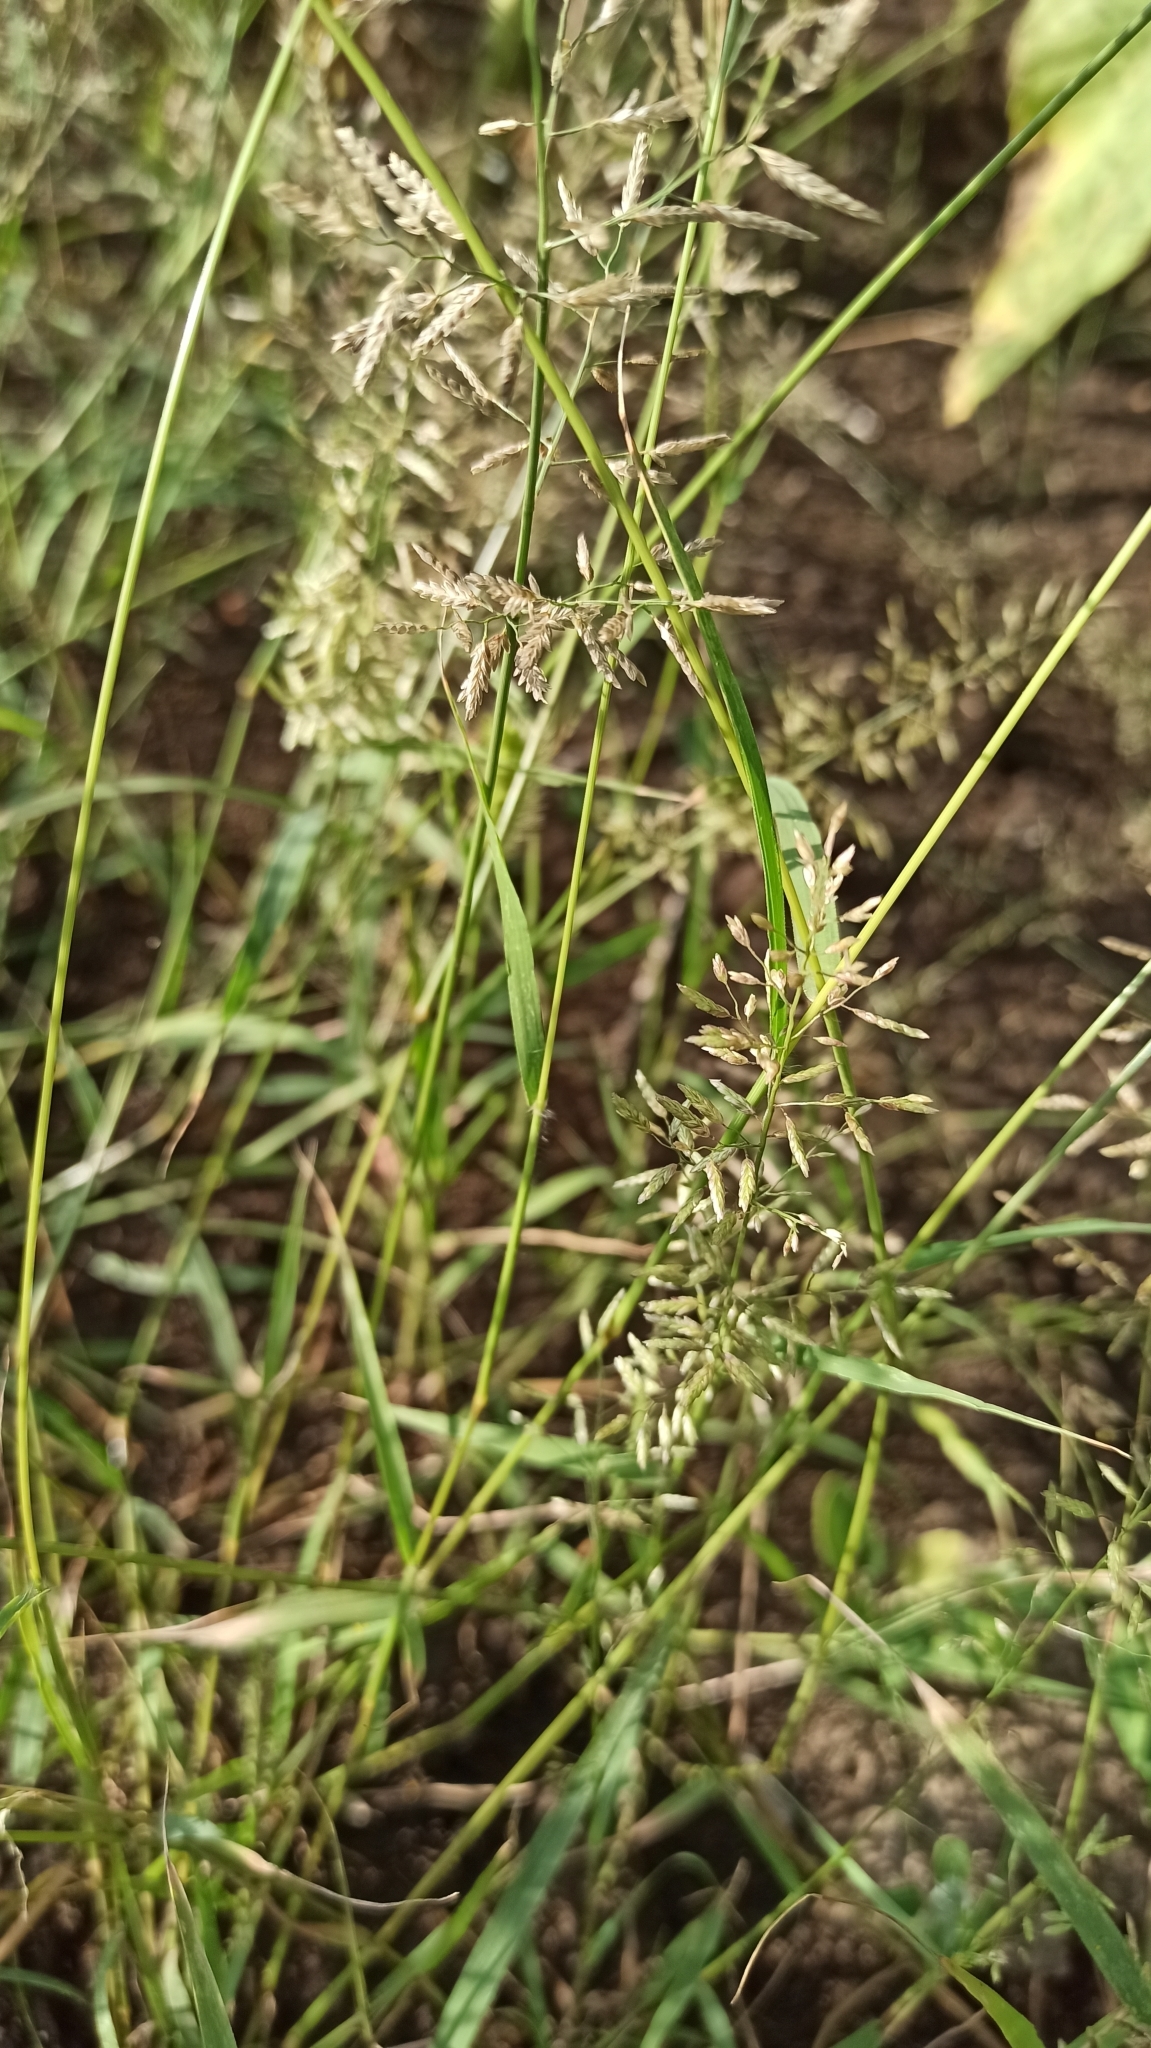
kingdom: Plantae
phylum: Tracheophyta
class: Liliopsida
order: Poales
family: Poaceae
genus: Eragrostis
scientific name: Eragrostis minor
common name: Small love-grass
